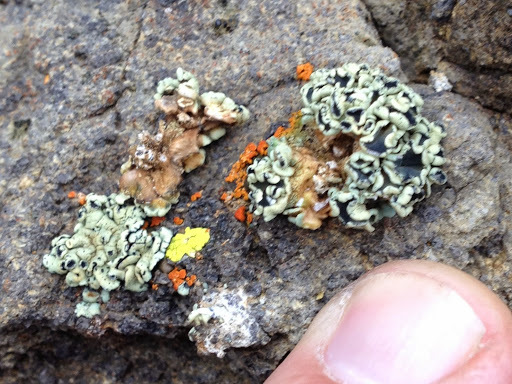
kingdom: Fungi
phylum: Ascomycota
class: Lecanoromycetes
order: Lecanorales
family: Lecanoraceae
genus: Rhizoplaca
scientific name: Rhizoplaca melanophthalma
